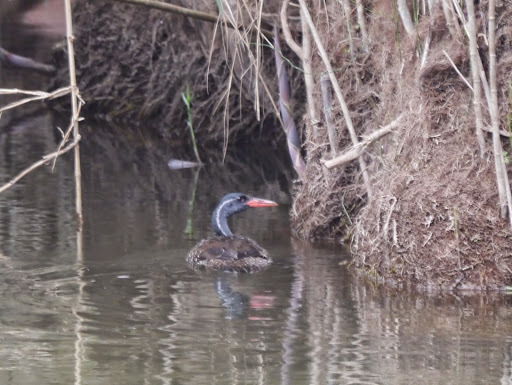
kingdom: Animalia
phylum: Chordata
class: Aves
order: Gruiformes
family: Heliornithidae
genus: Podica
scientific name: Podica senegalensis
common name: African finfoot
